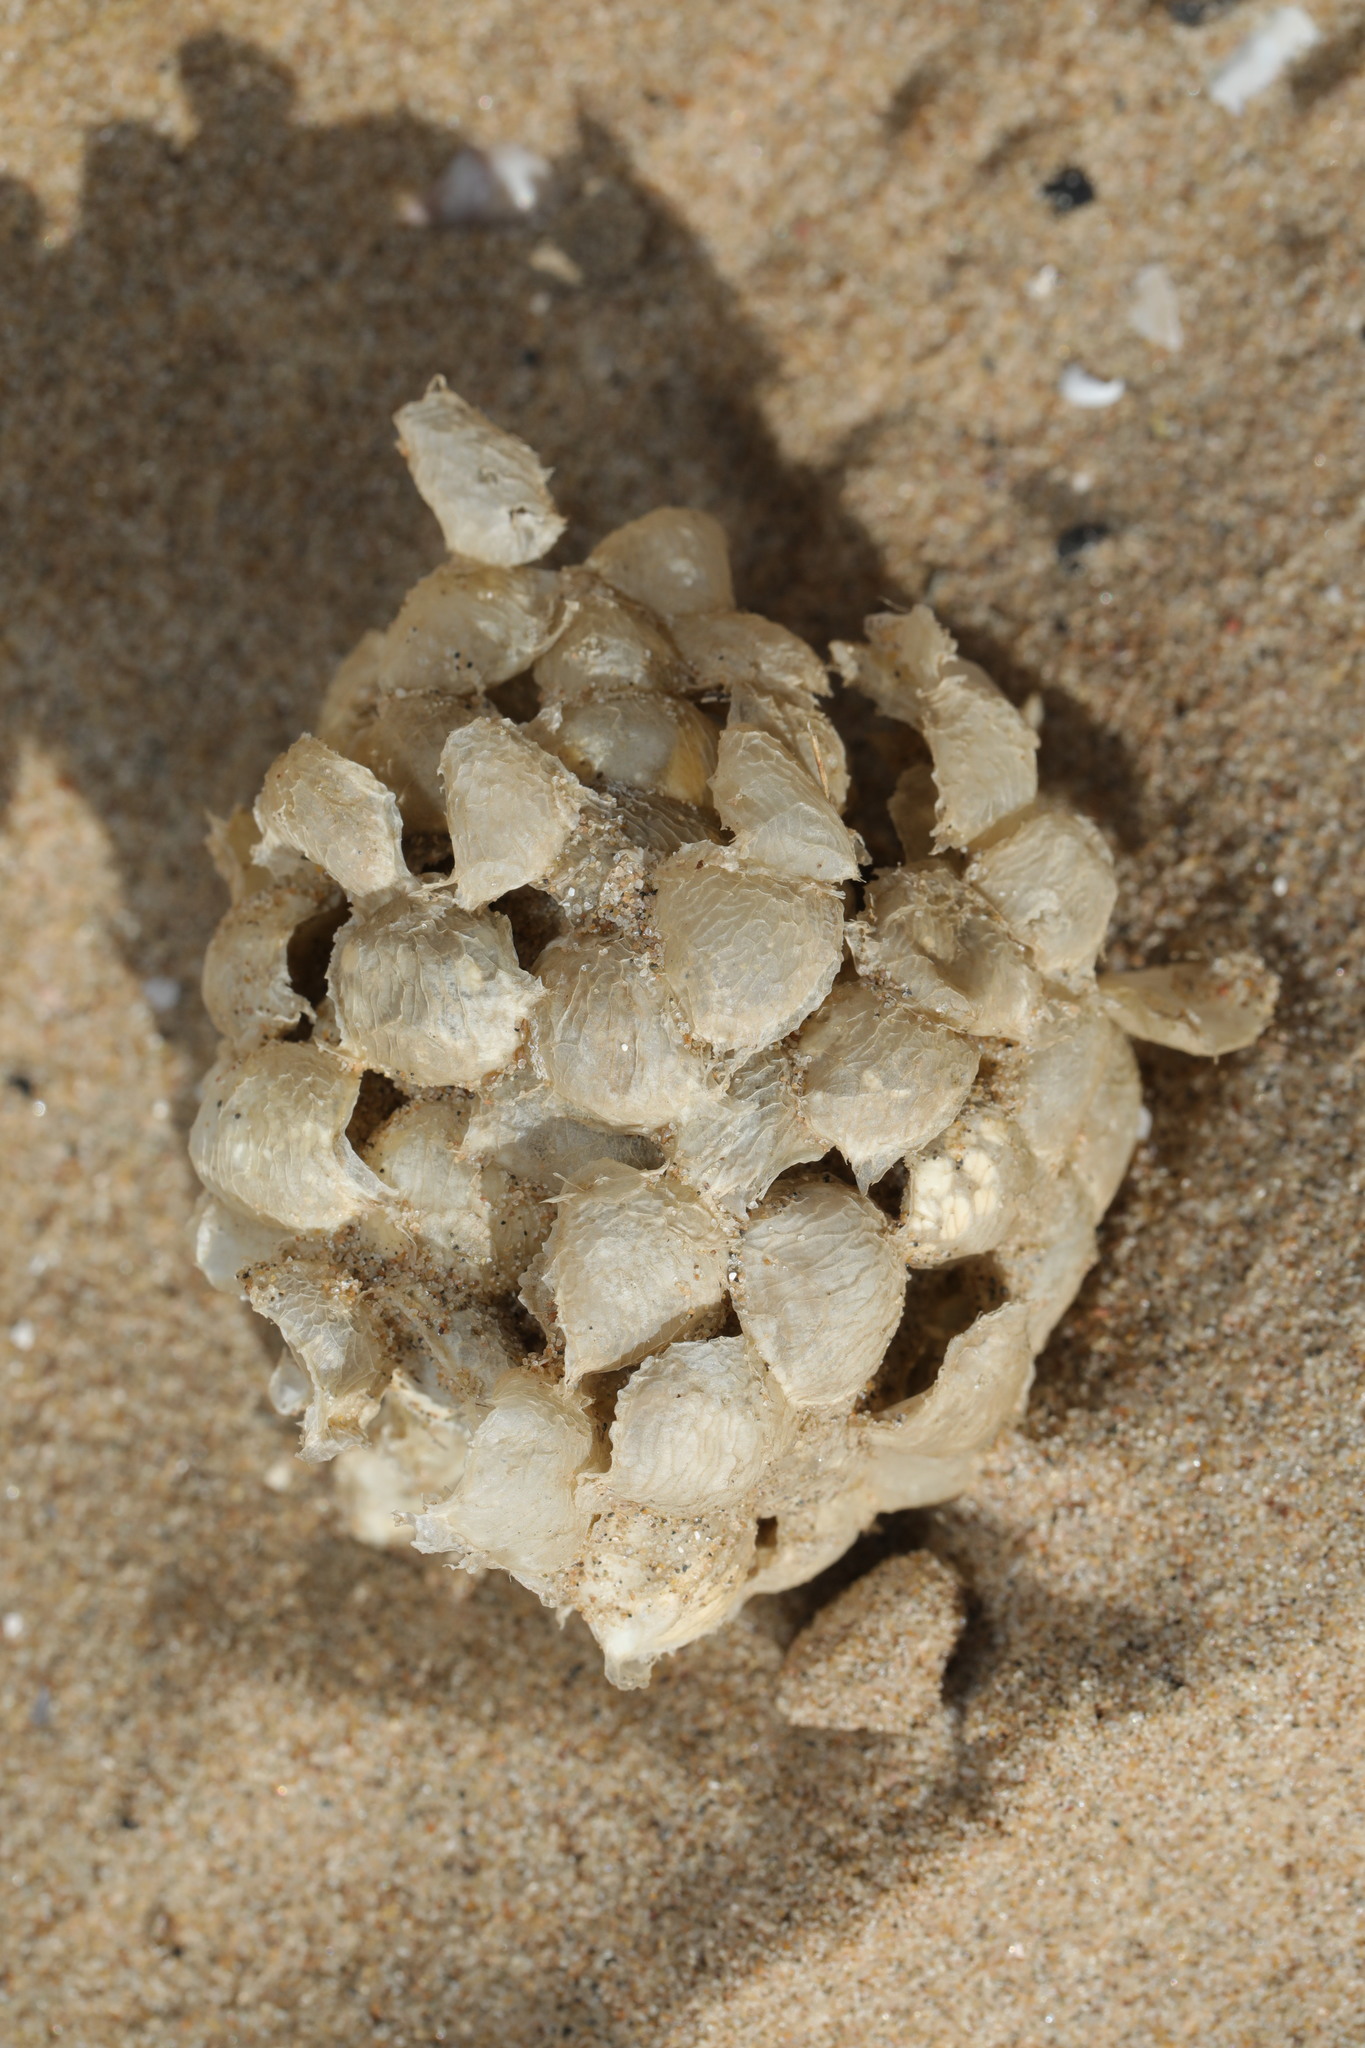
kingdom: Animalia
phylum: Mollusca
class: Gastropoda
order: Neogastropoda
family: Buccinidae
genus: Buccinum
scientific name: Buccinum undatum
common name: Common whelk
